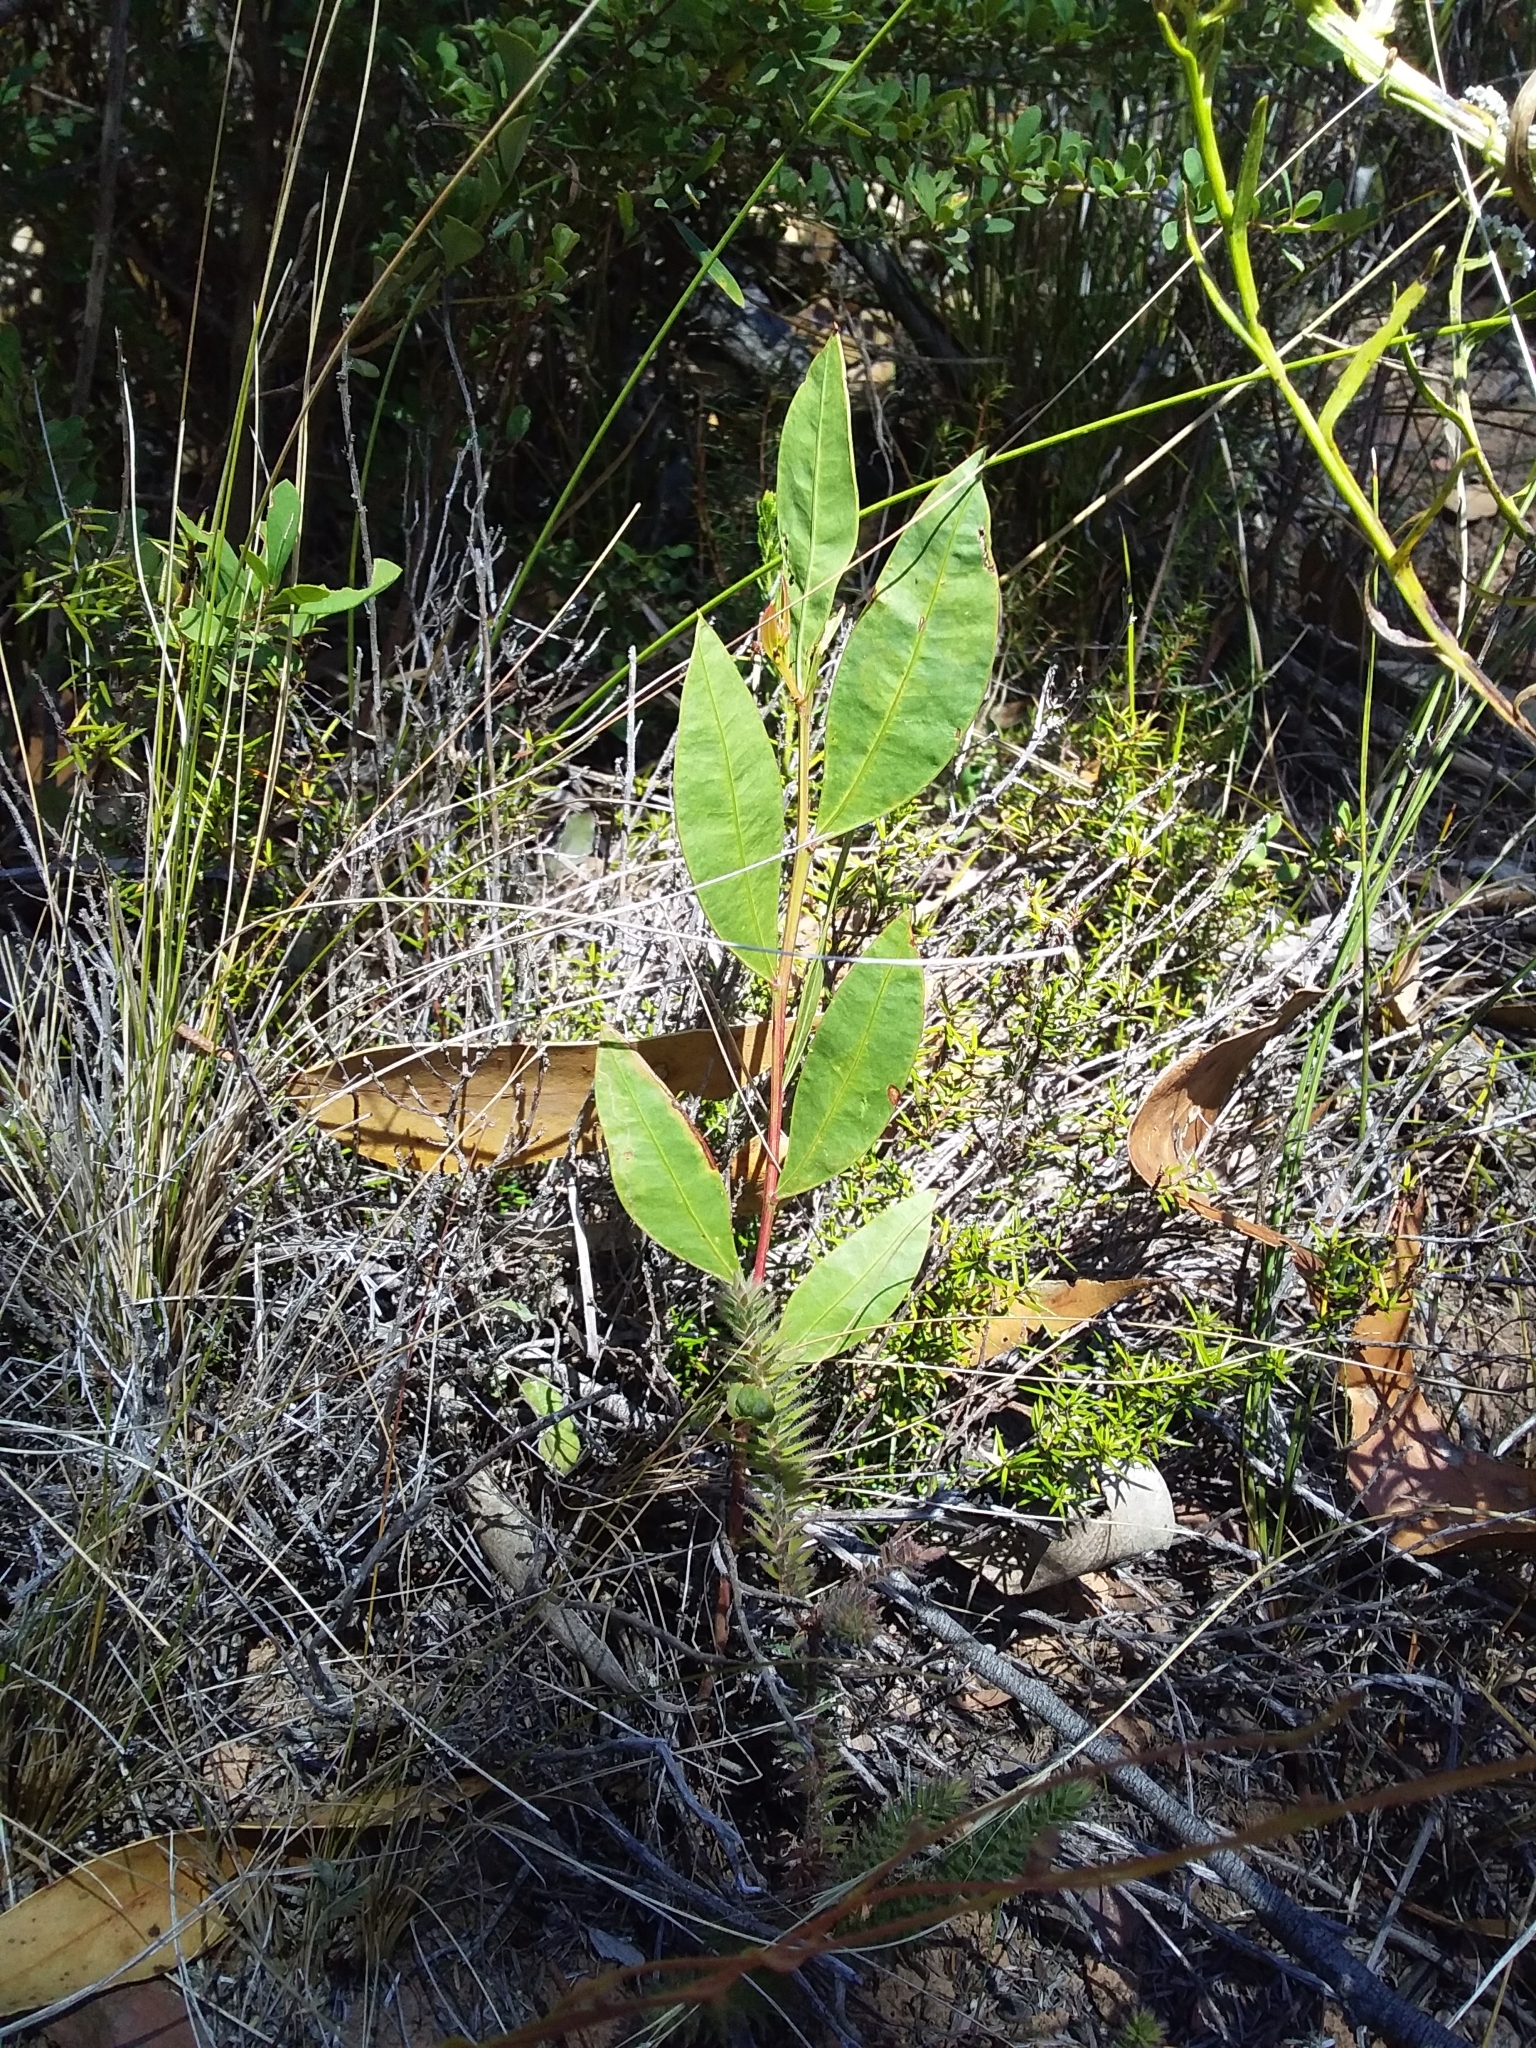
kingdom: Plantae
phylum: Tracheophyta
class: Magnoliopsida
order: Fabales
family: Fabaceae
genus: Acacia
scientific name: Acacia myrtifolia
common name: Myrtle wattle
